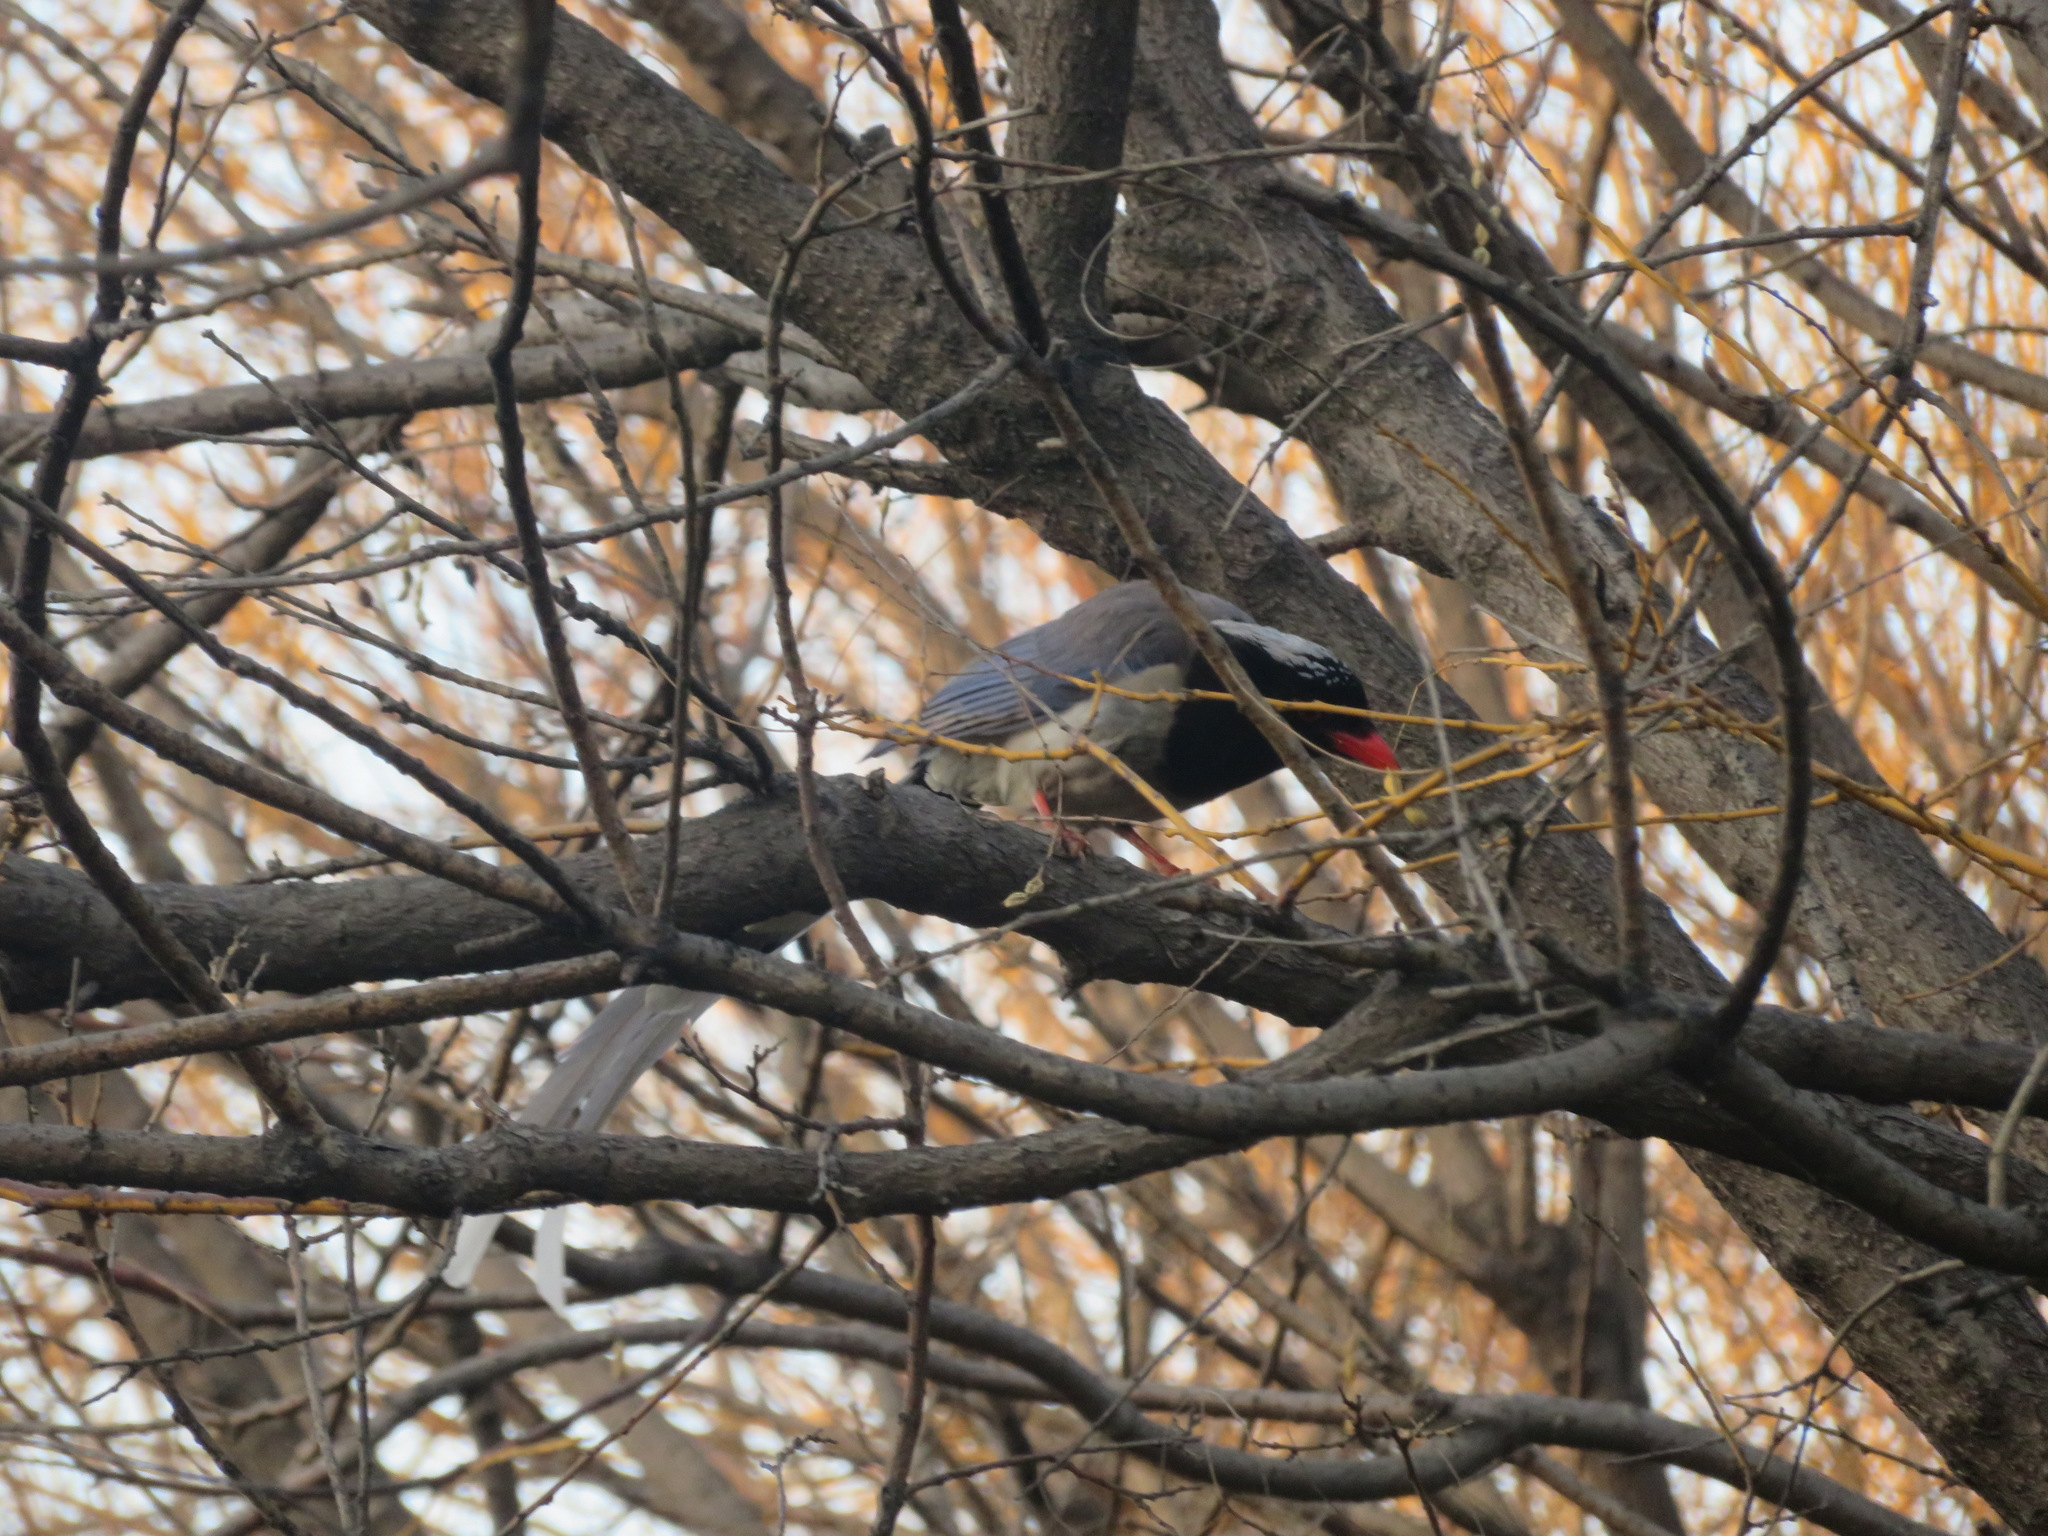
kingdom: Animalia
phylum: Chordata
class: Aves
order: Passeriformes
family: Corvidae
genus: Urocissa
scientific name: Urocissa erythroryncha
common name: Red-billed blue magpie
